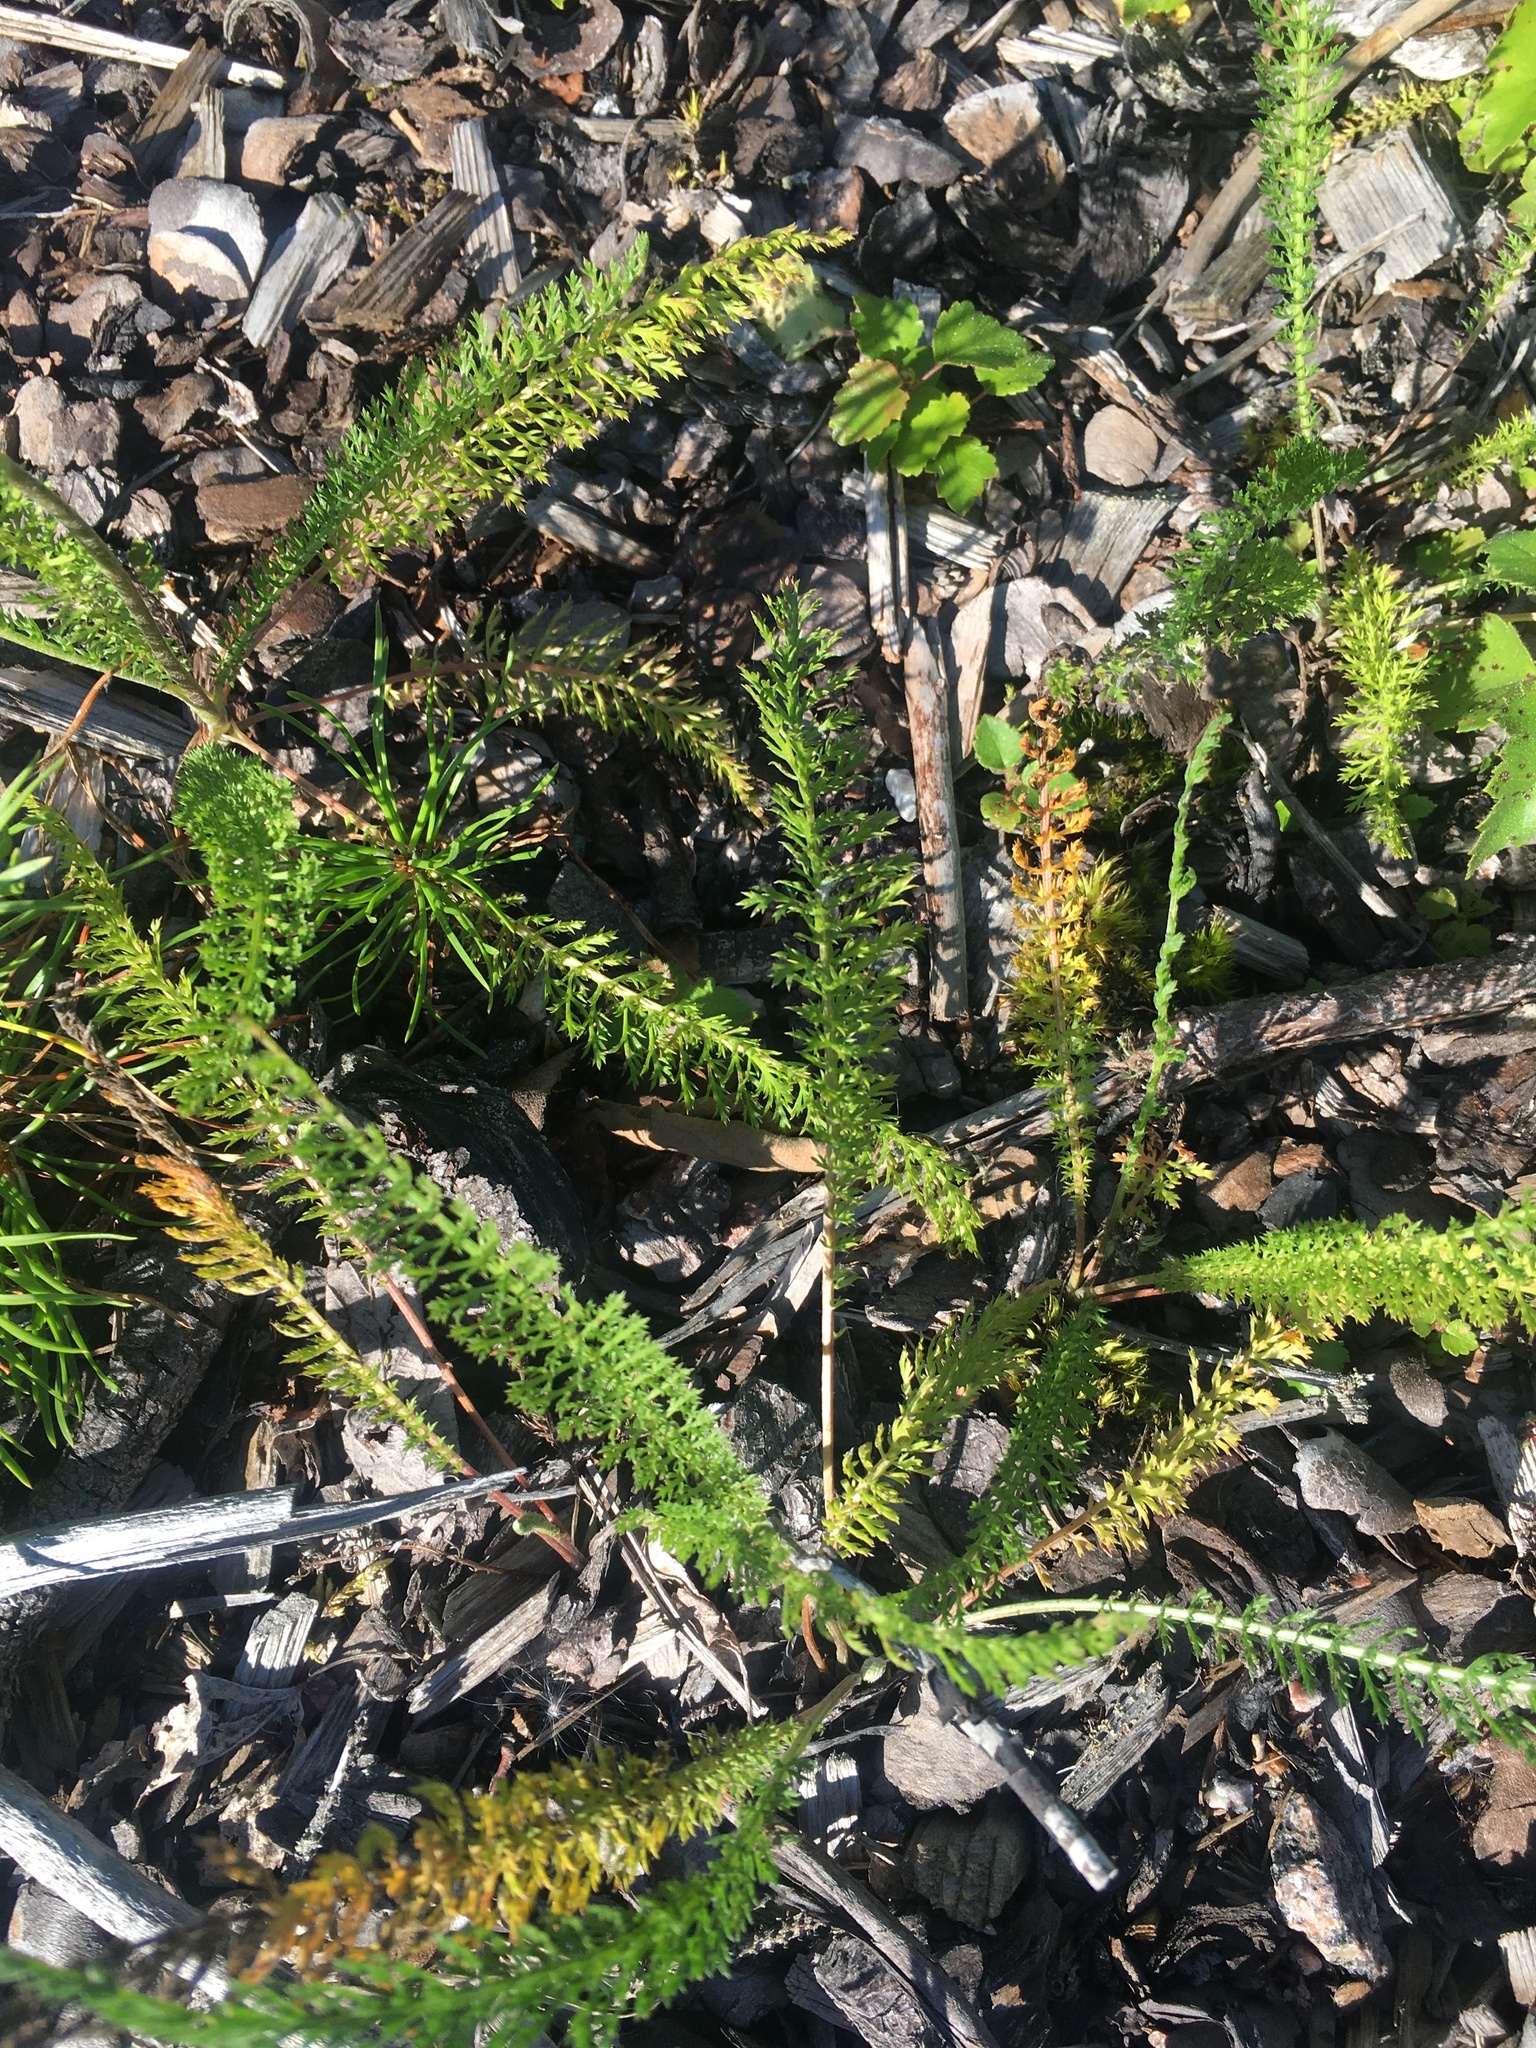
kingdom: Plantae
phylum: Tracheophyta
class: Magnoliopsida
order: Asterales
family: Asteraceae
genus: Achillea
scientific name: Achillea millefolium
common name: Yarrow
